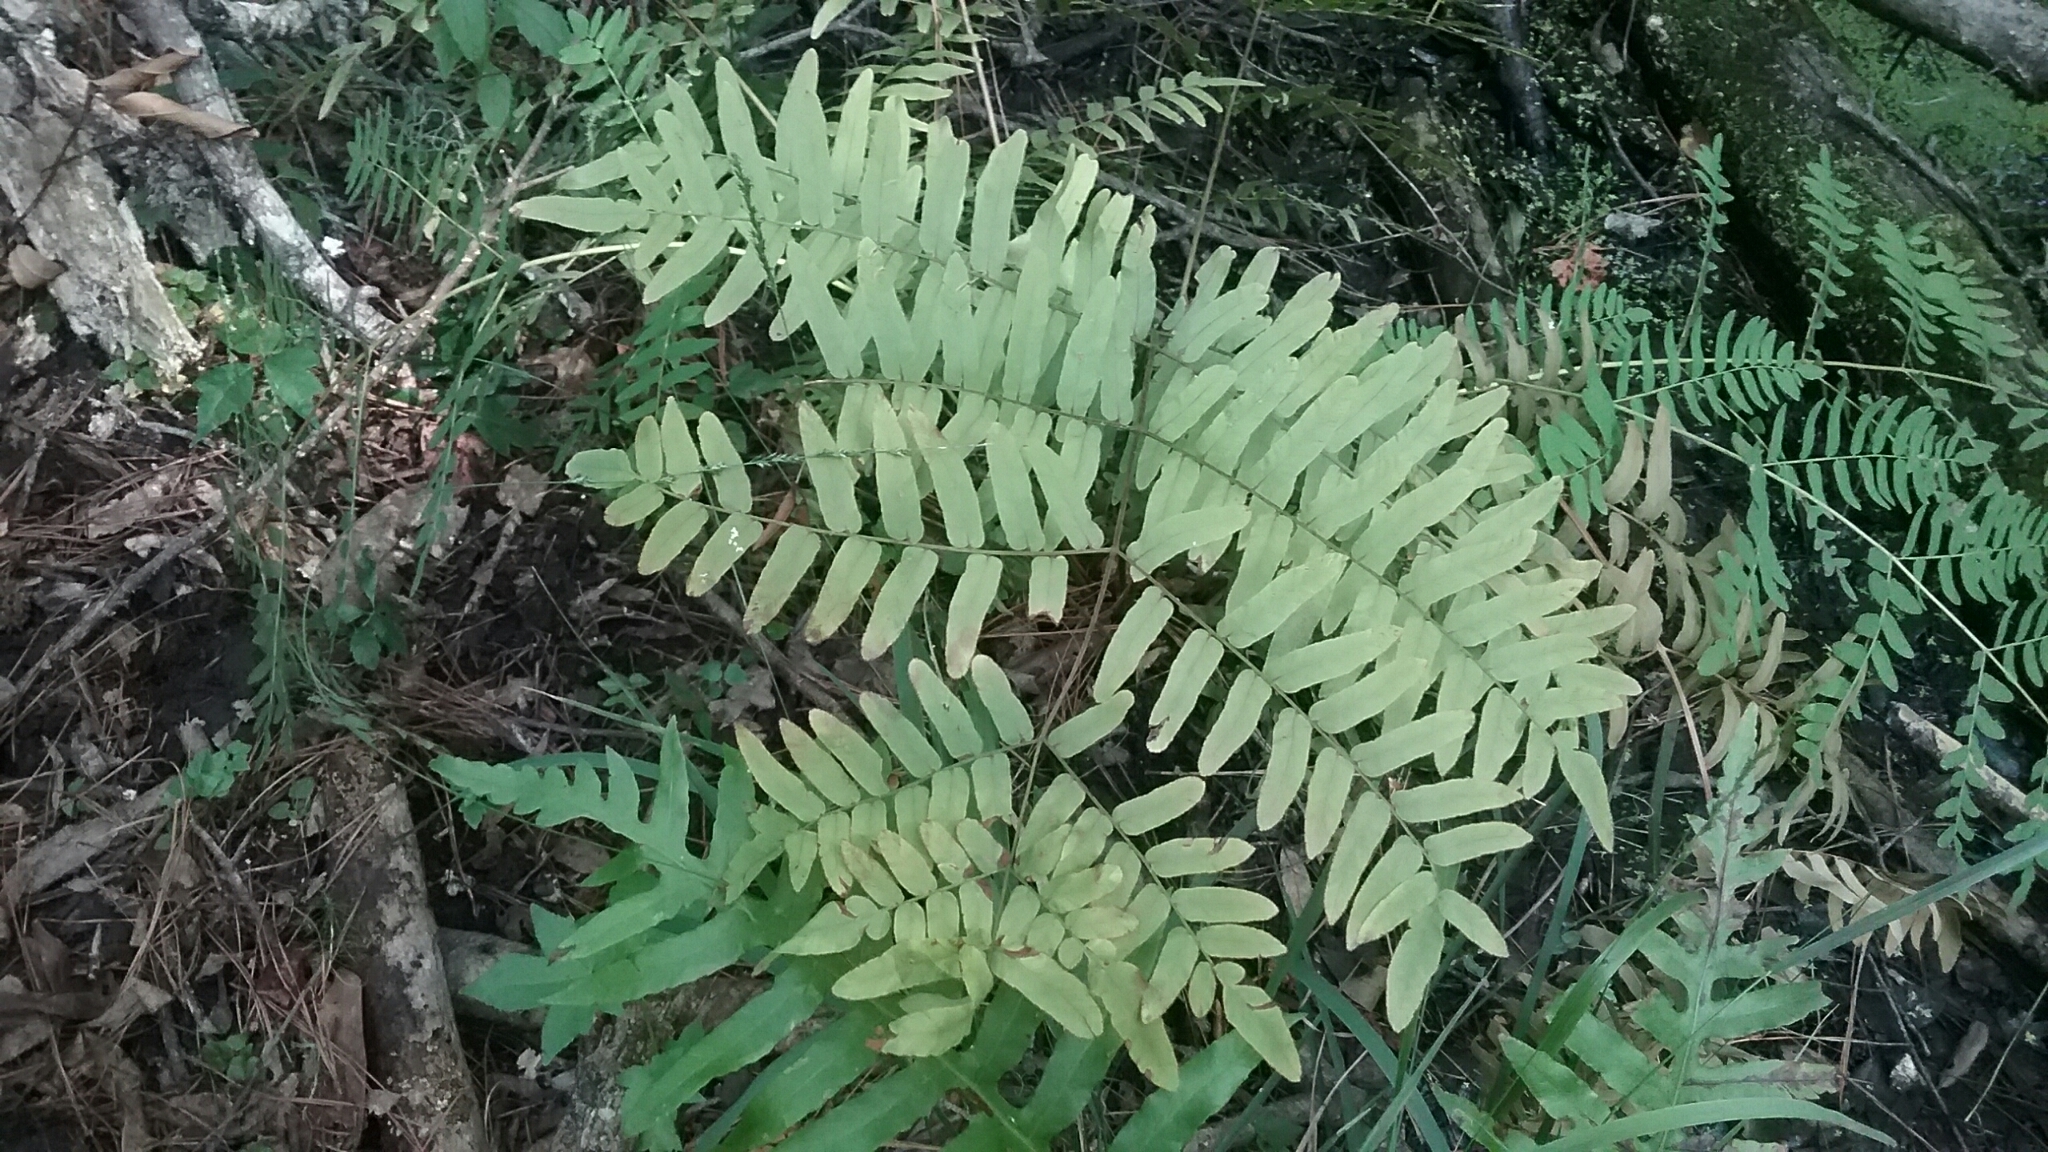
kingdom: Plantae
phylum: Tracheophyta
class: Polypodiopsida
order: Osmundales
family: Osmundaceae
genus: Osmunda
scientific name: Osmunda spectabilis
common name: American royal fern
